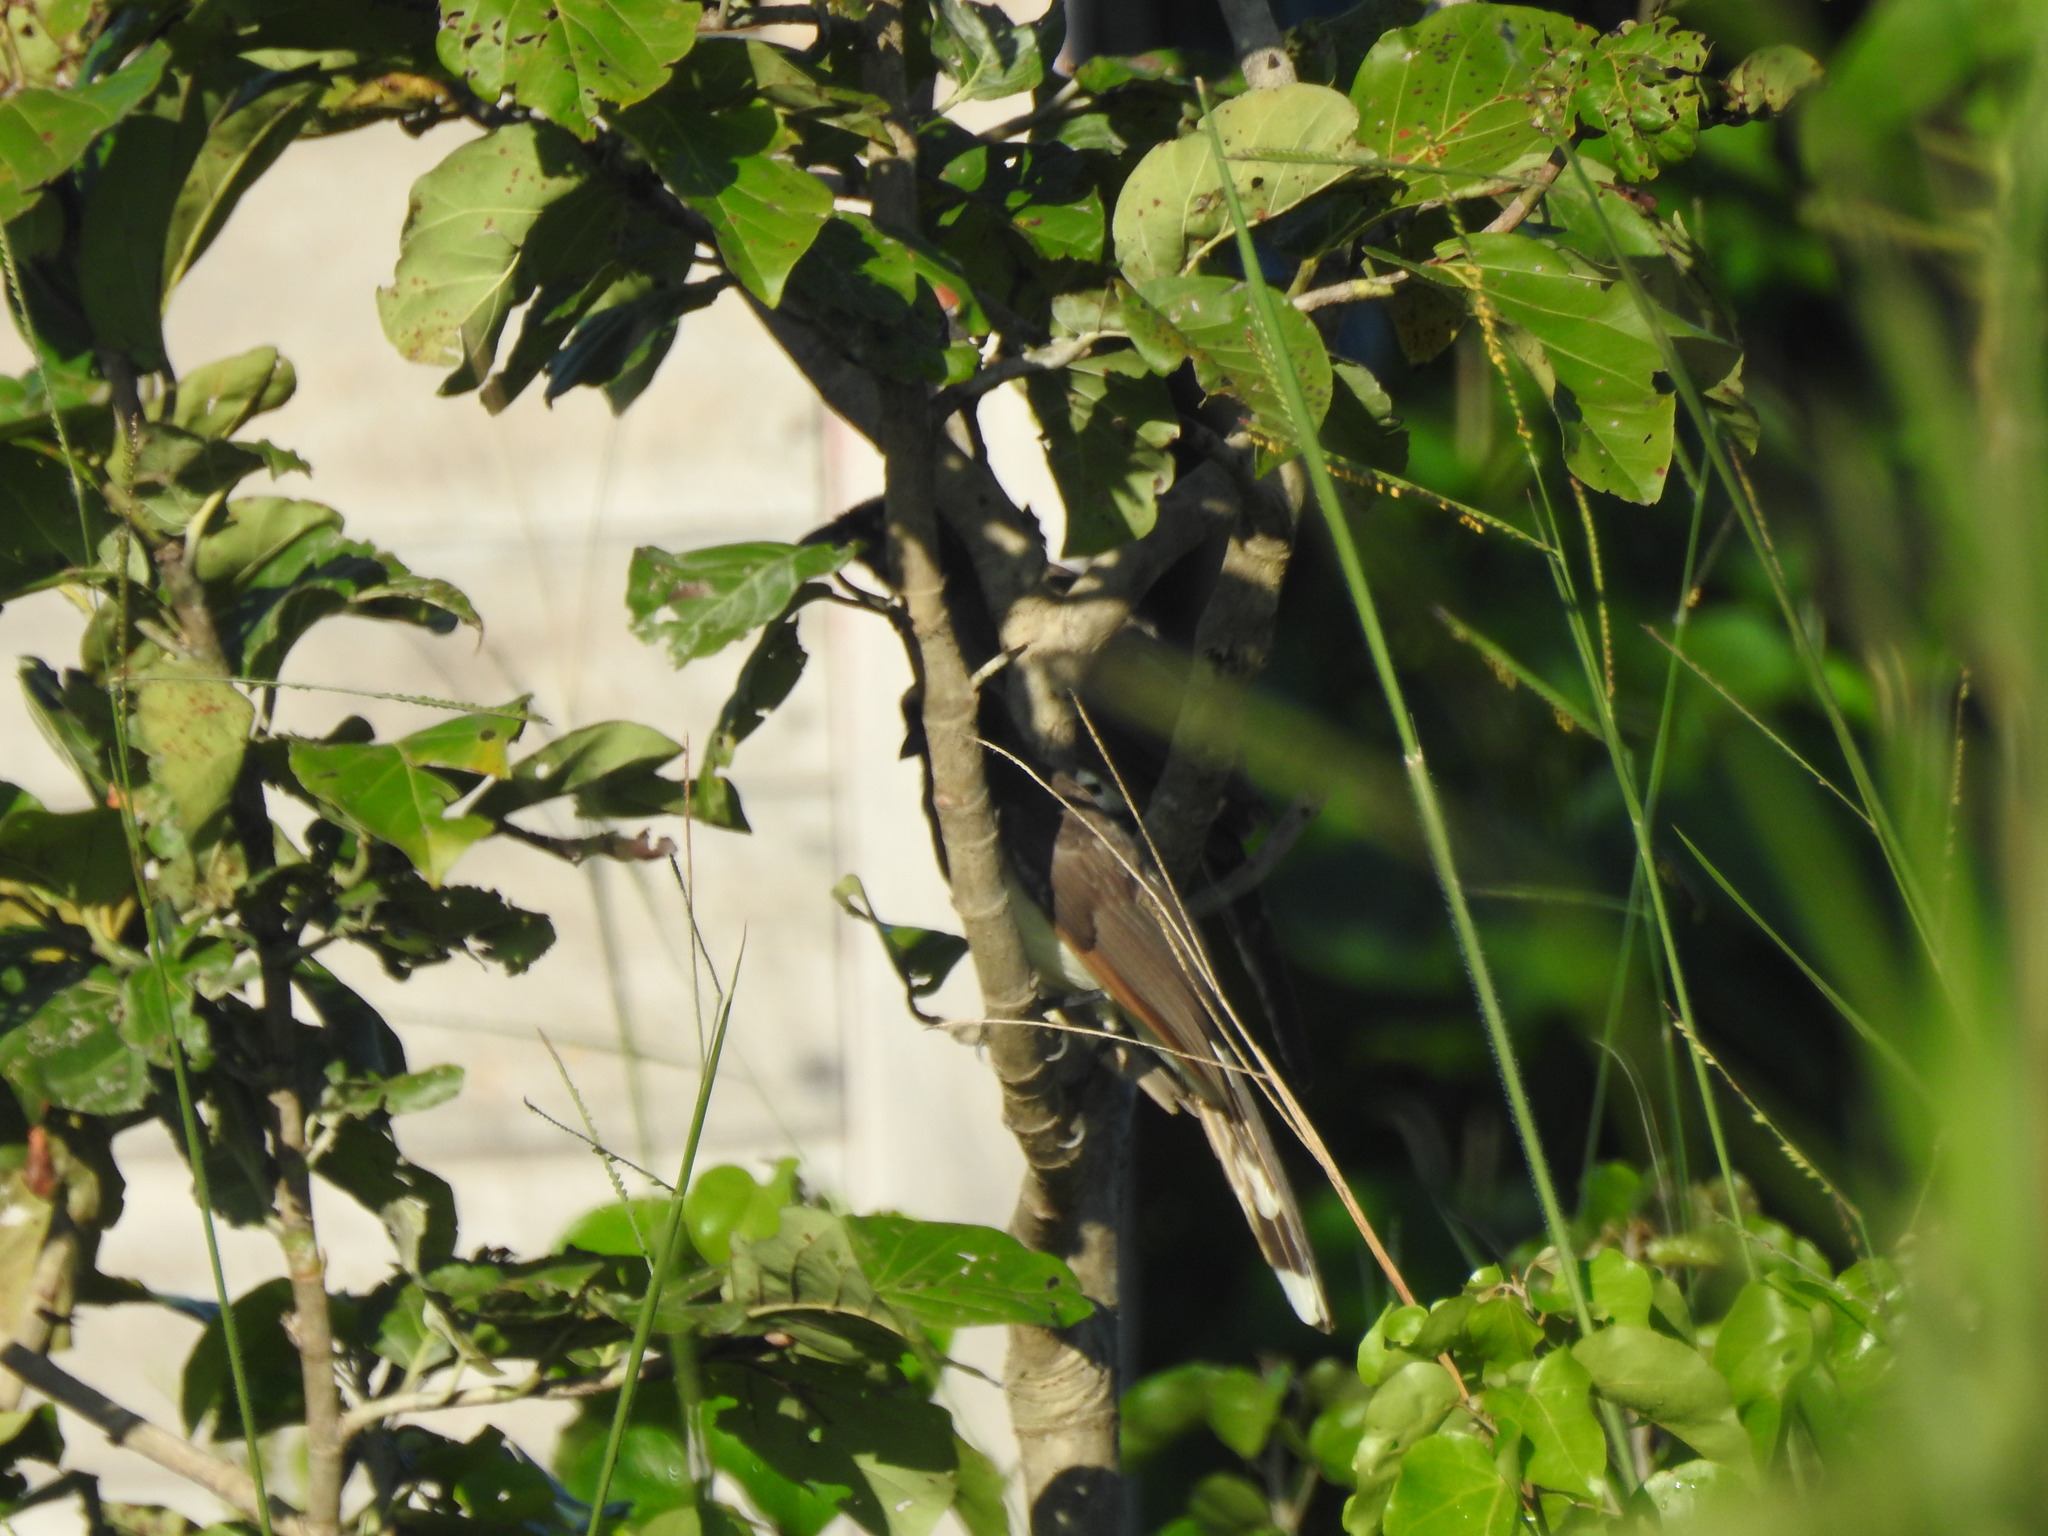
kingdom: Animalia
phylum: Chordata
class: Aves
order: Cuculiformes
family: Cuculidae
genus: Coccyzus
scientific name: Coccyzus americanus
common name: Yellow-billed cuckoo
